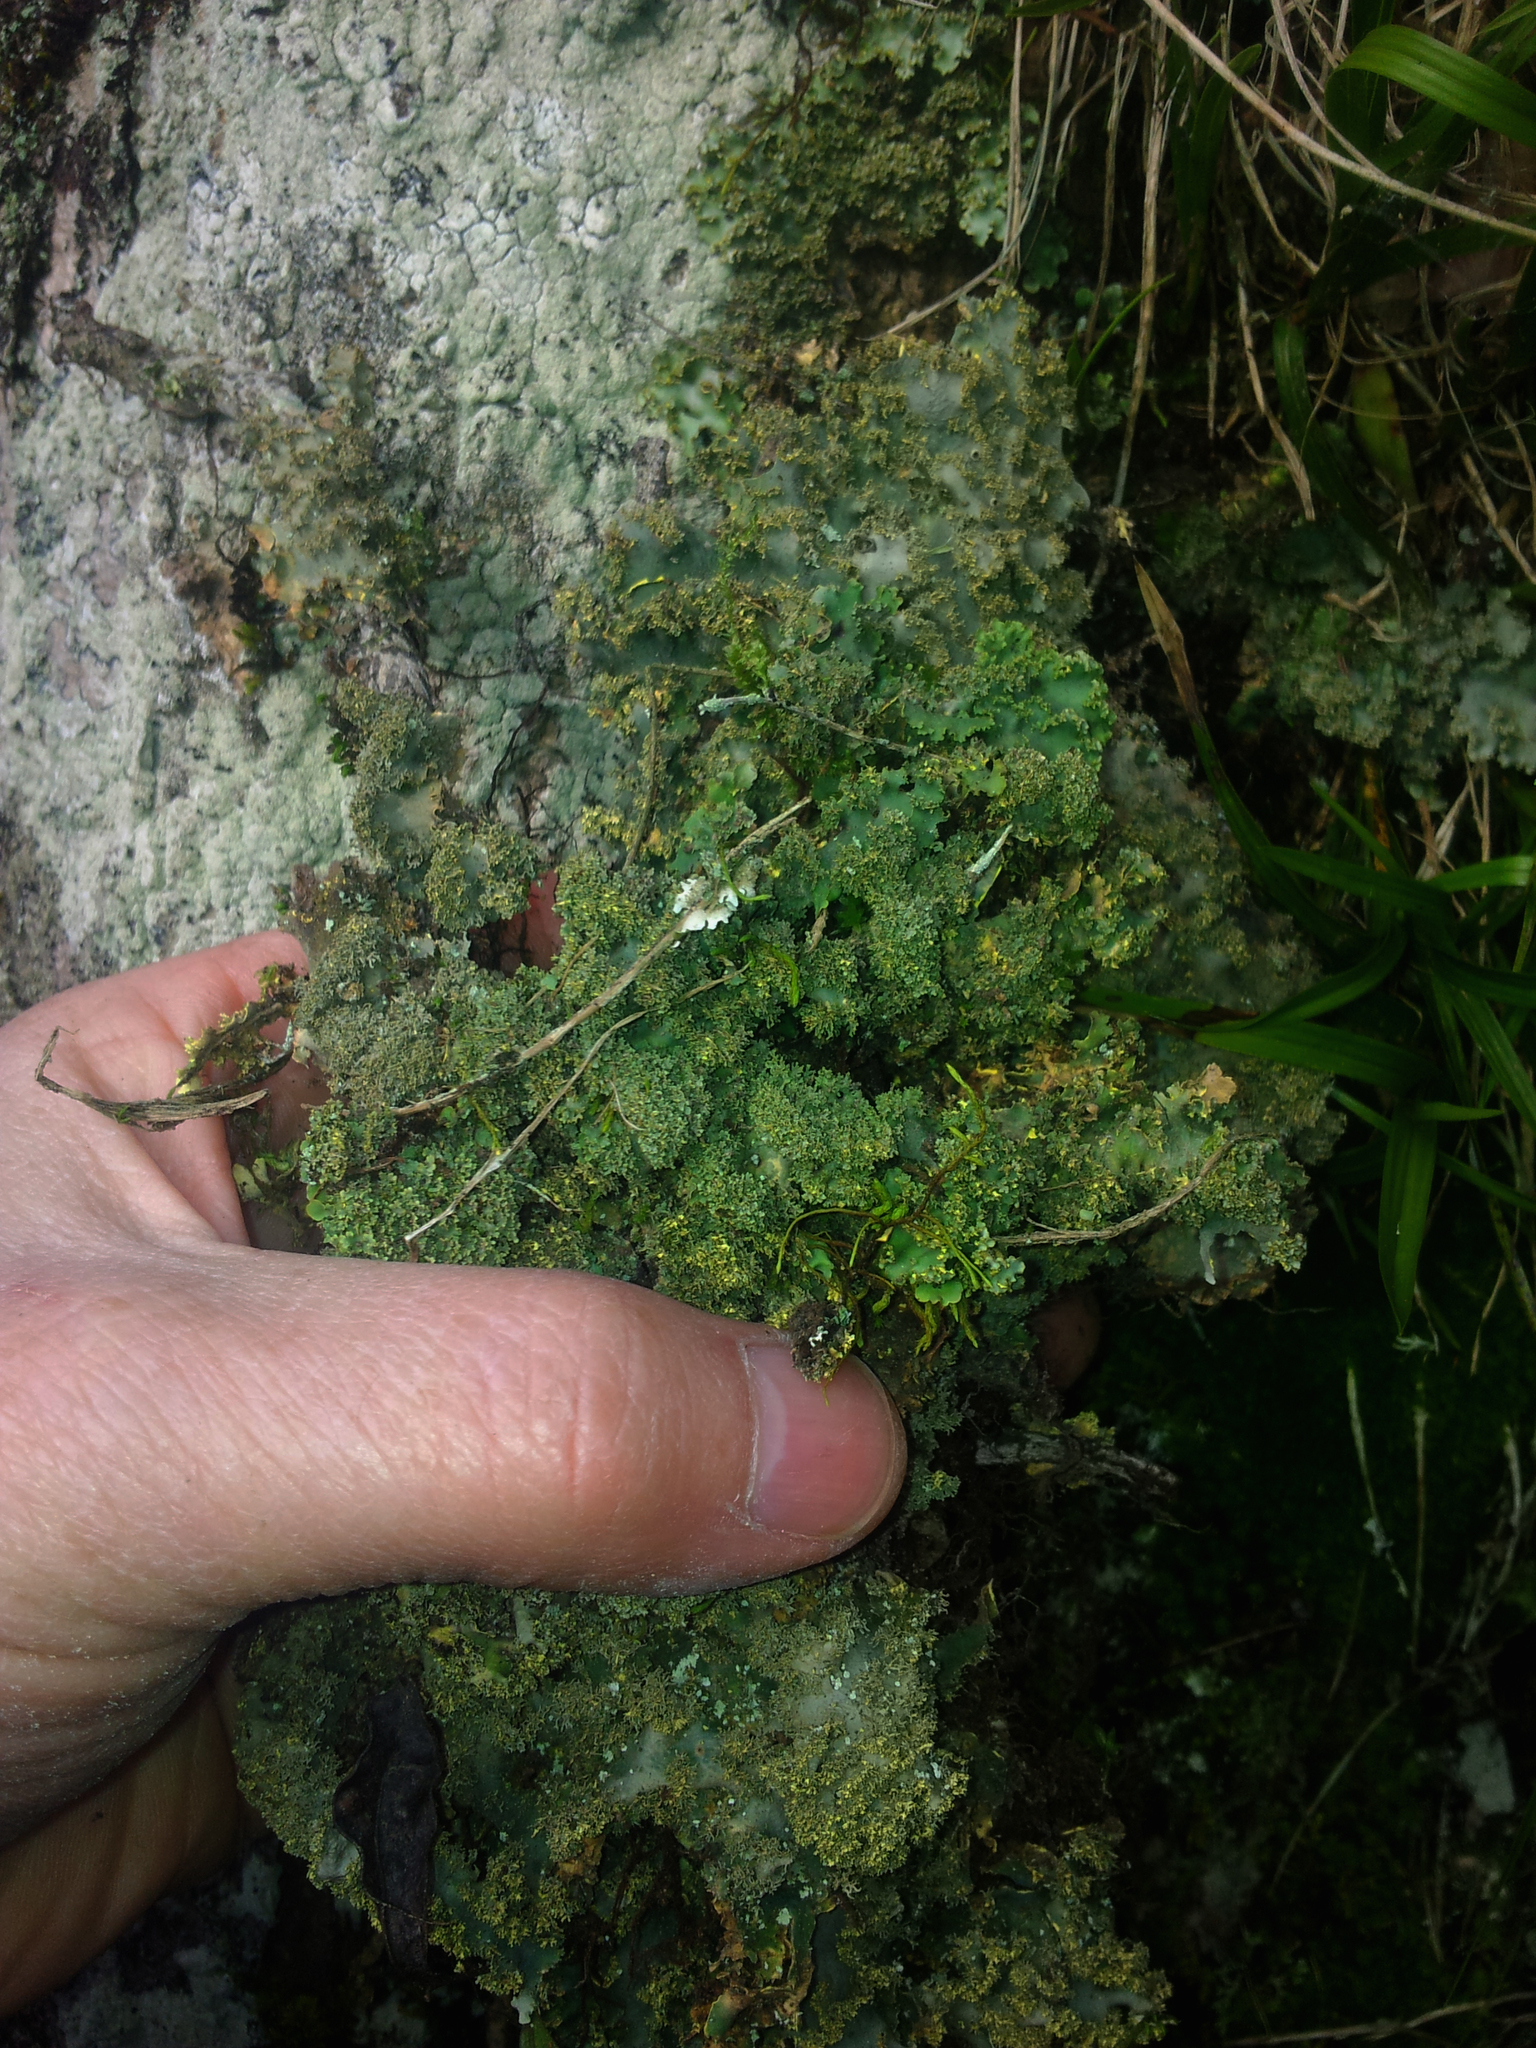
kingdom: Fungi
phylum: Ascomycota
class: Lecanoromycetes
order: Peltigerales
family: Lobariaceae
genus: Podostictina
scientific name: Podostictina pickeringii
